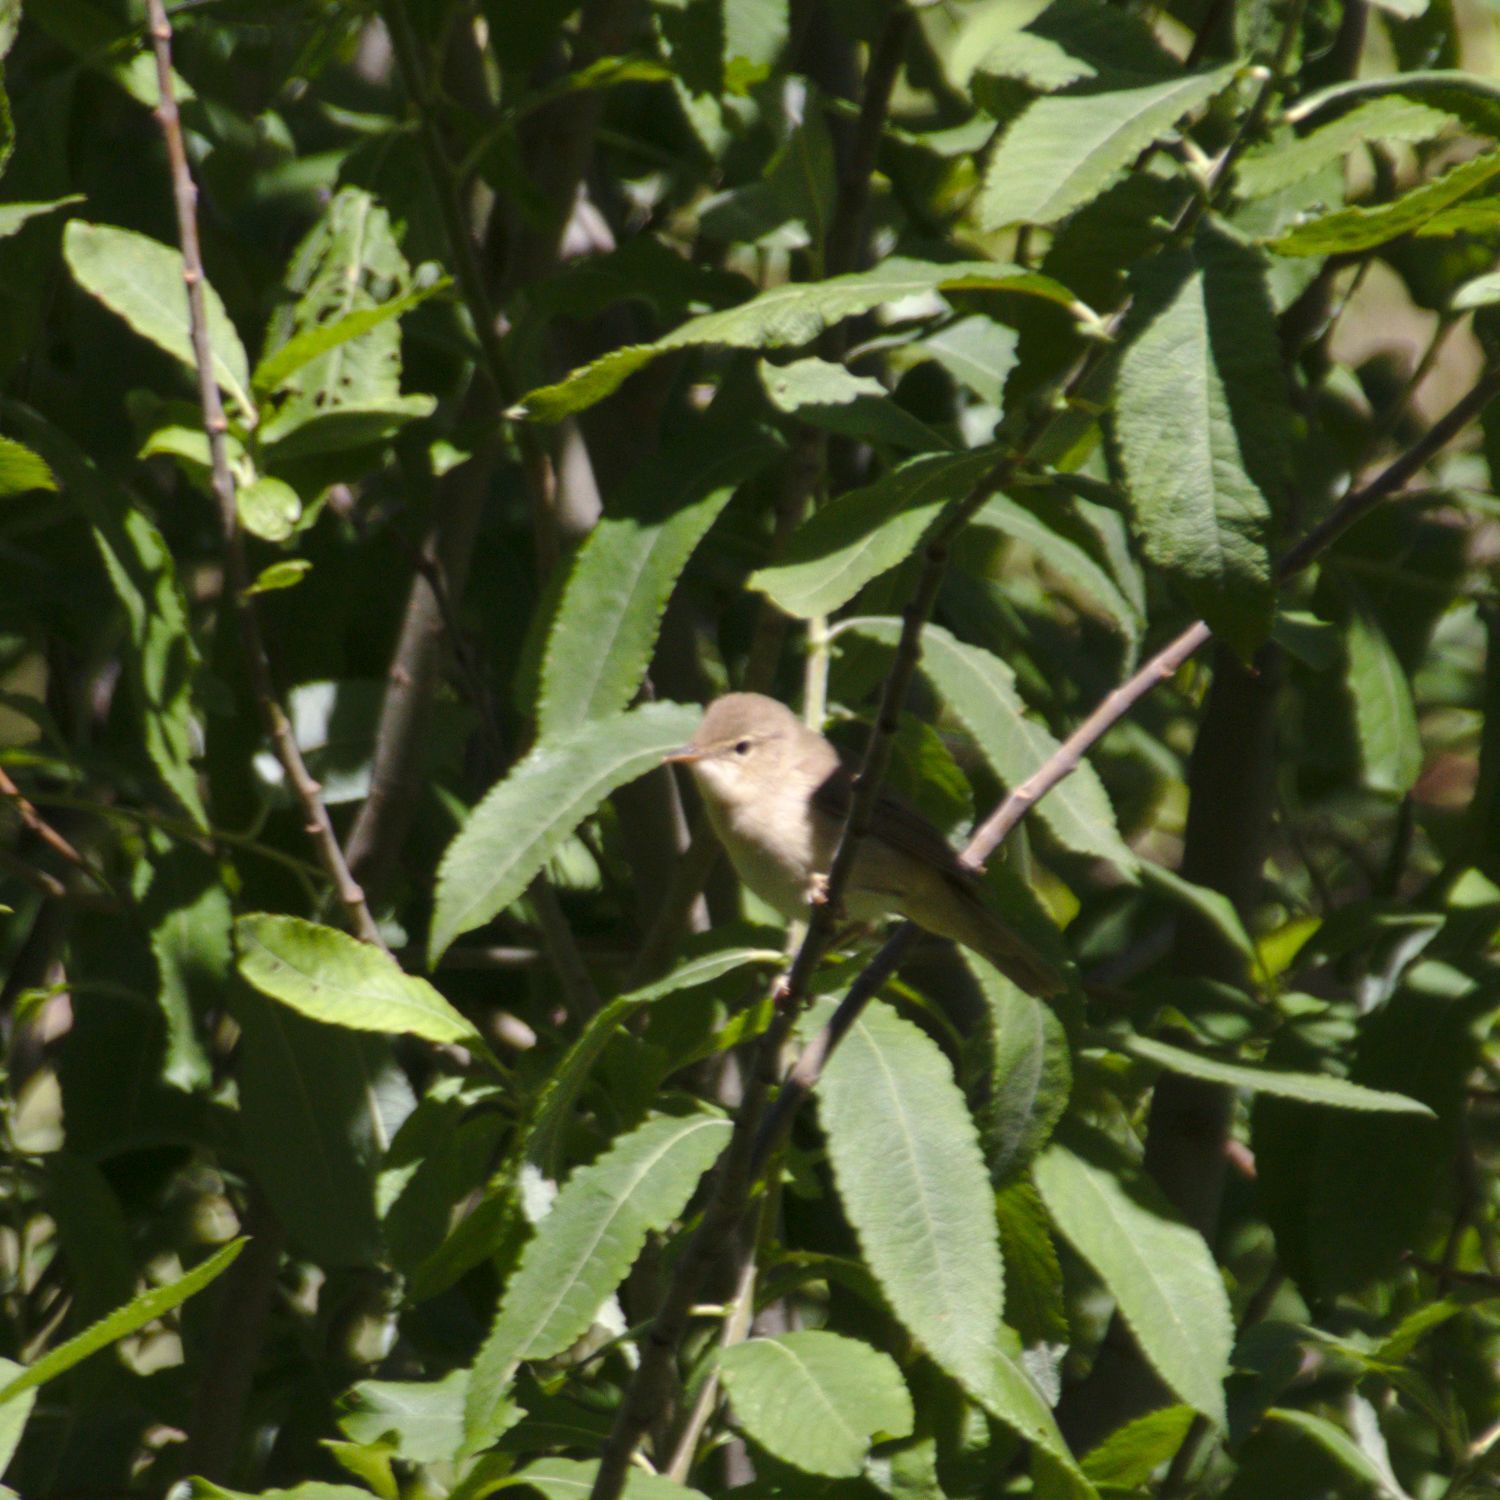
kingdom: Animalia
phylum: Chordata
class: Aves
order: Passeriformes
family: Acrocephalidae
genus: Iduna
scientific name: Iduna caligata
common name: Booted warbler
